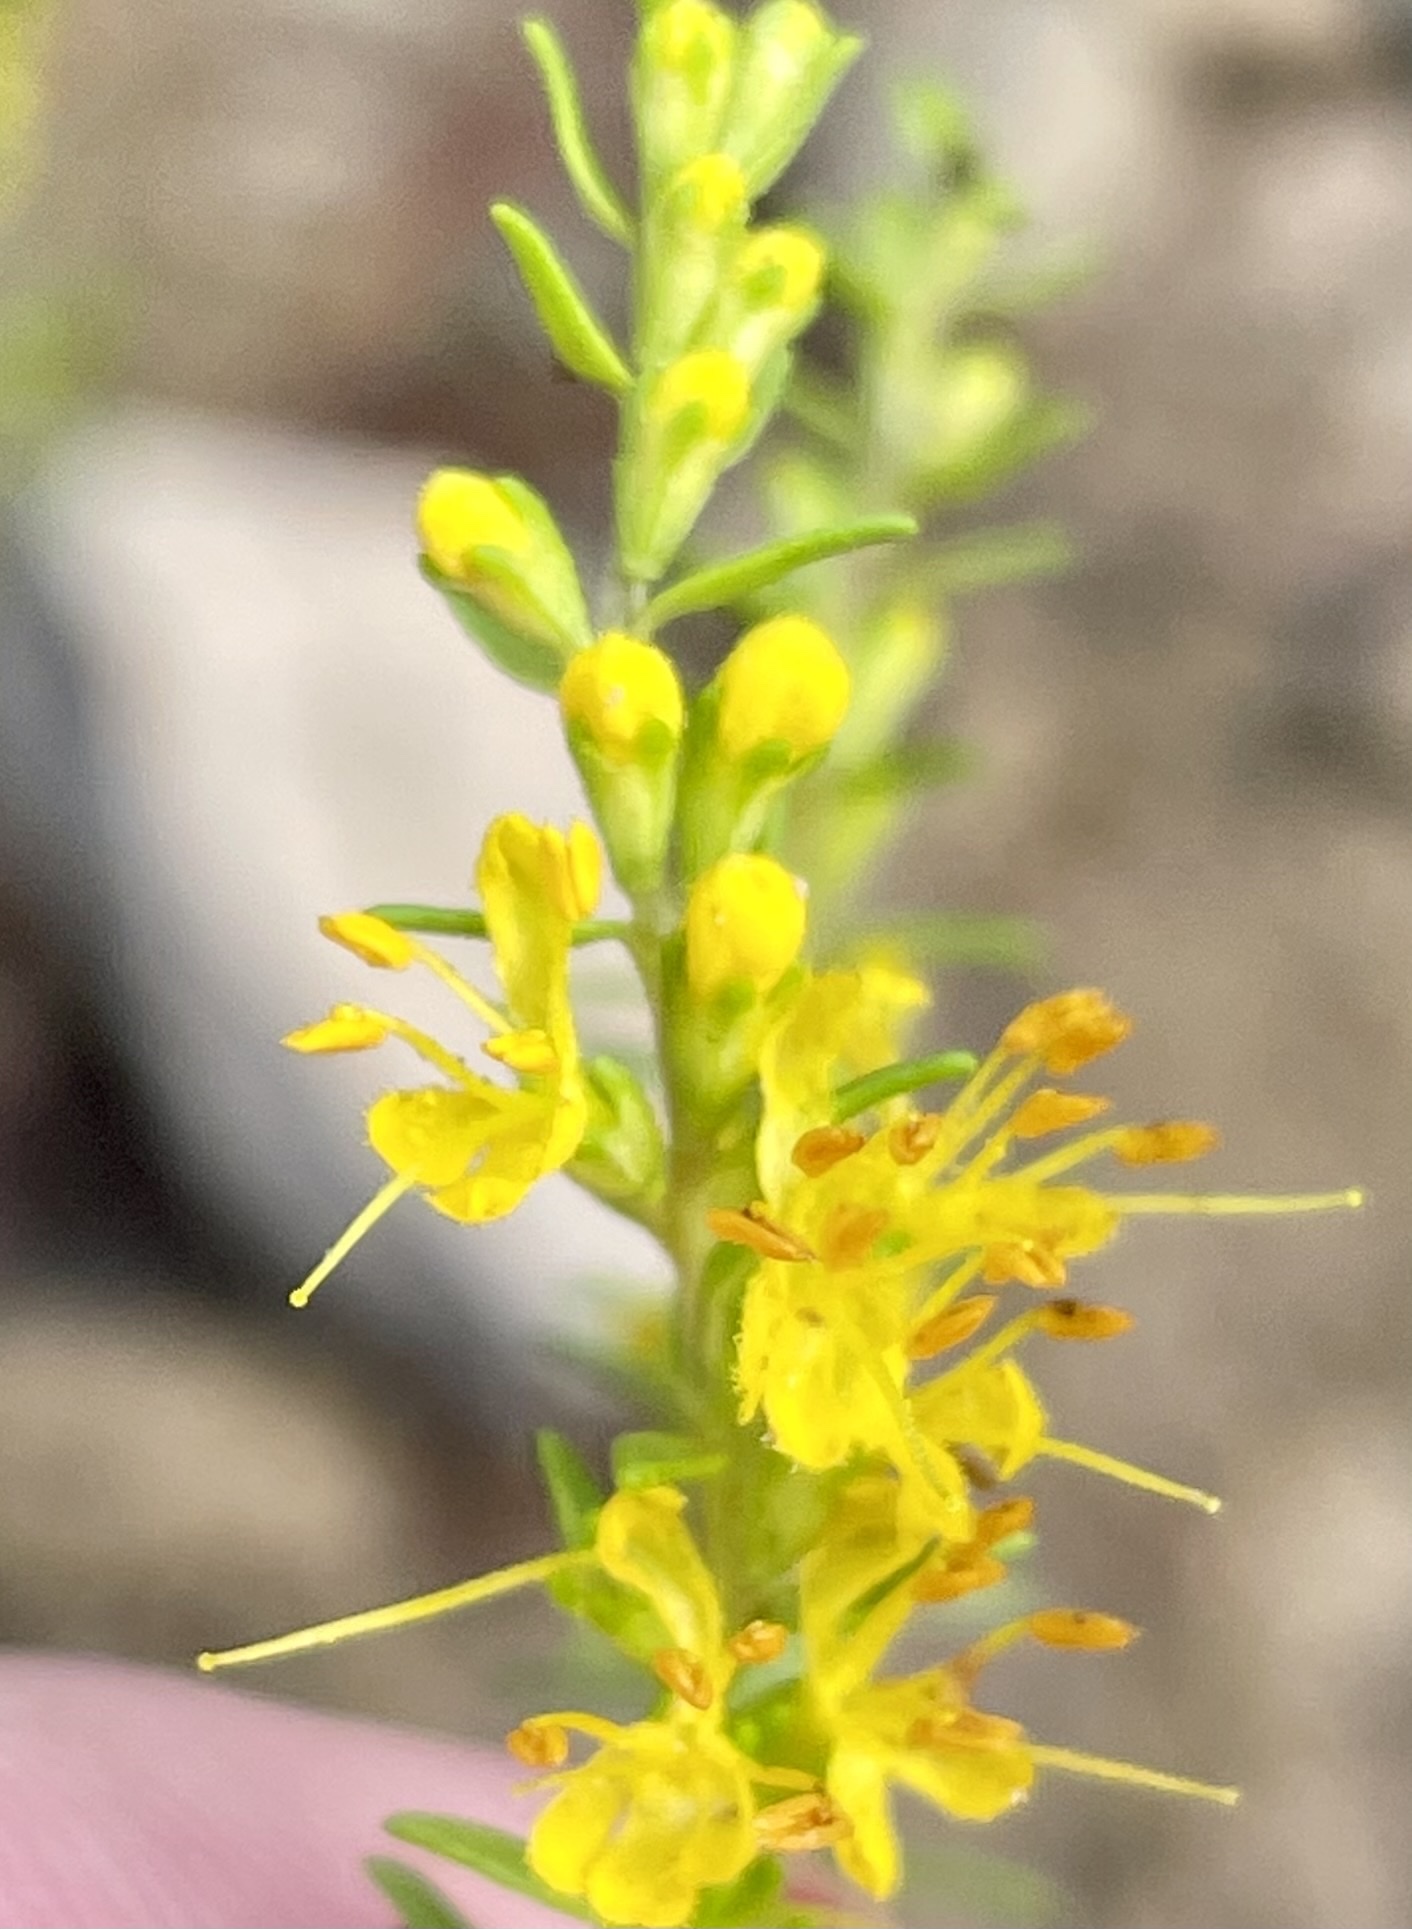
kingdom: Plantae
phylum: Tracheophyta
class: Magnoliopsida
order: Lamiales
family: Orobanchaceae
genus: Odontites
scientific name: Odontites luteus
